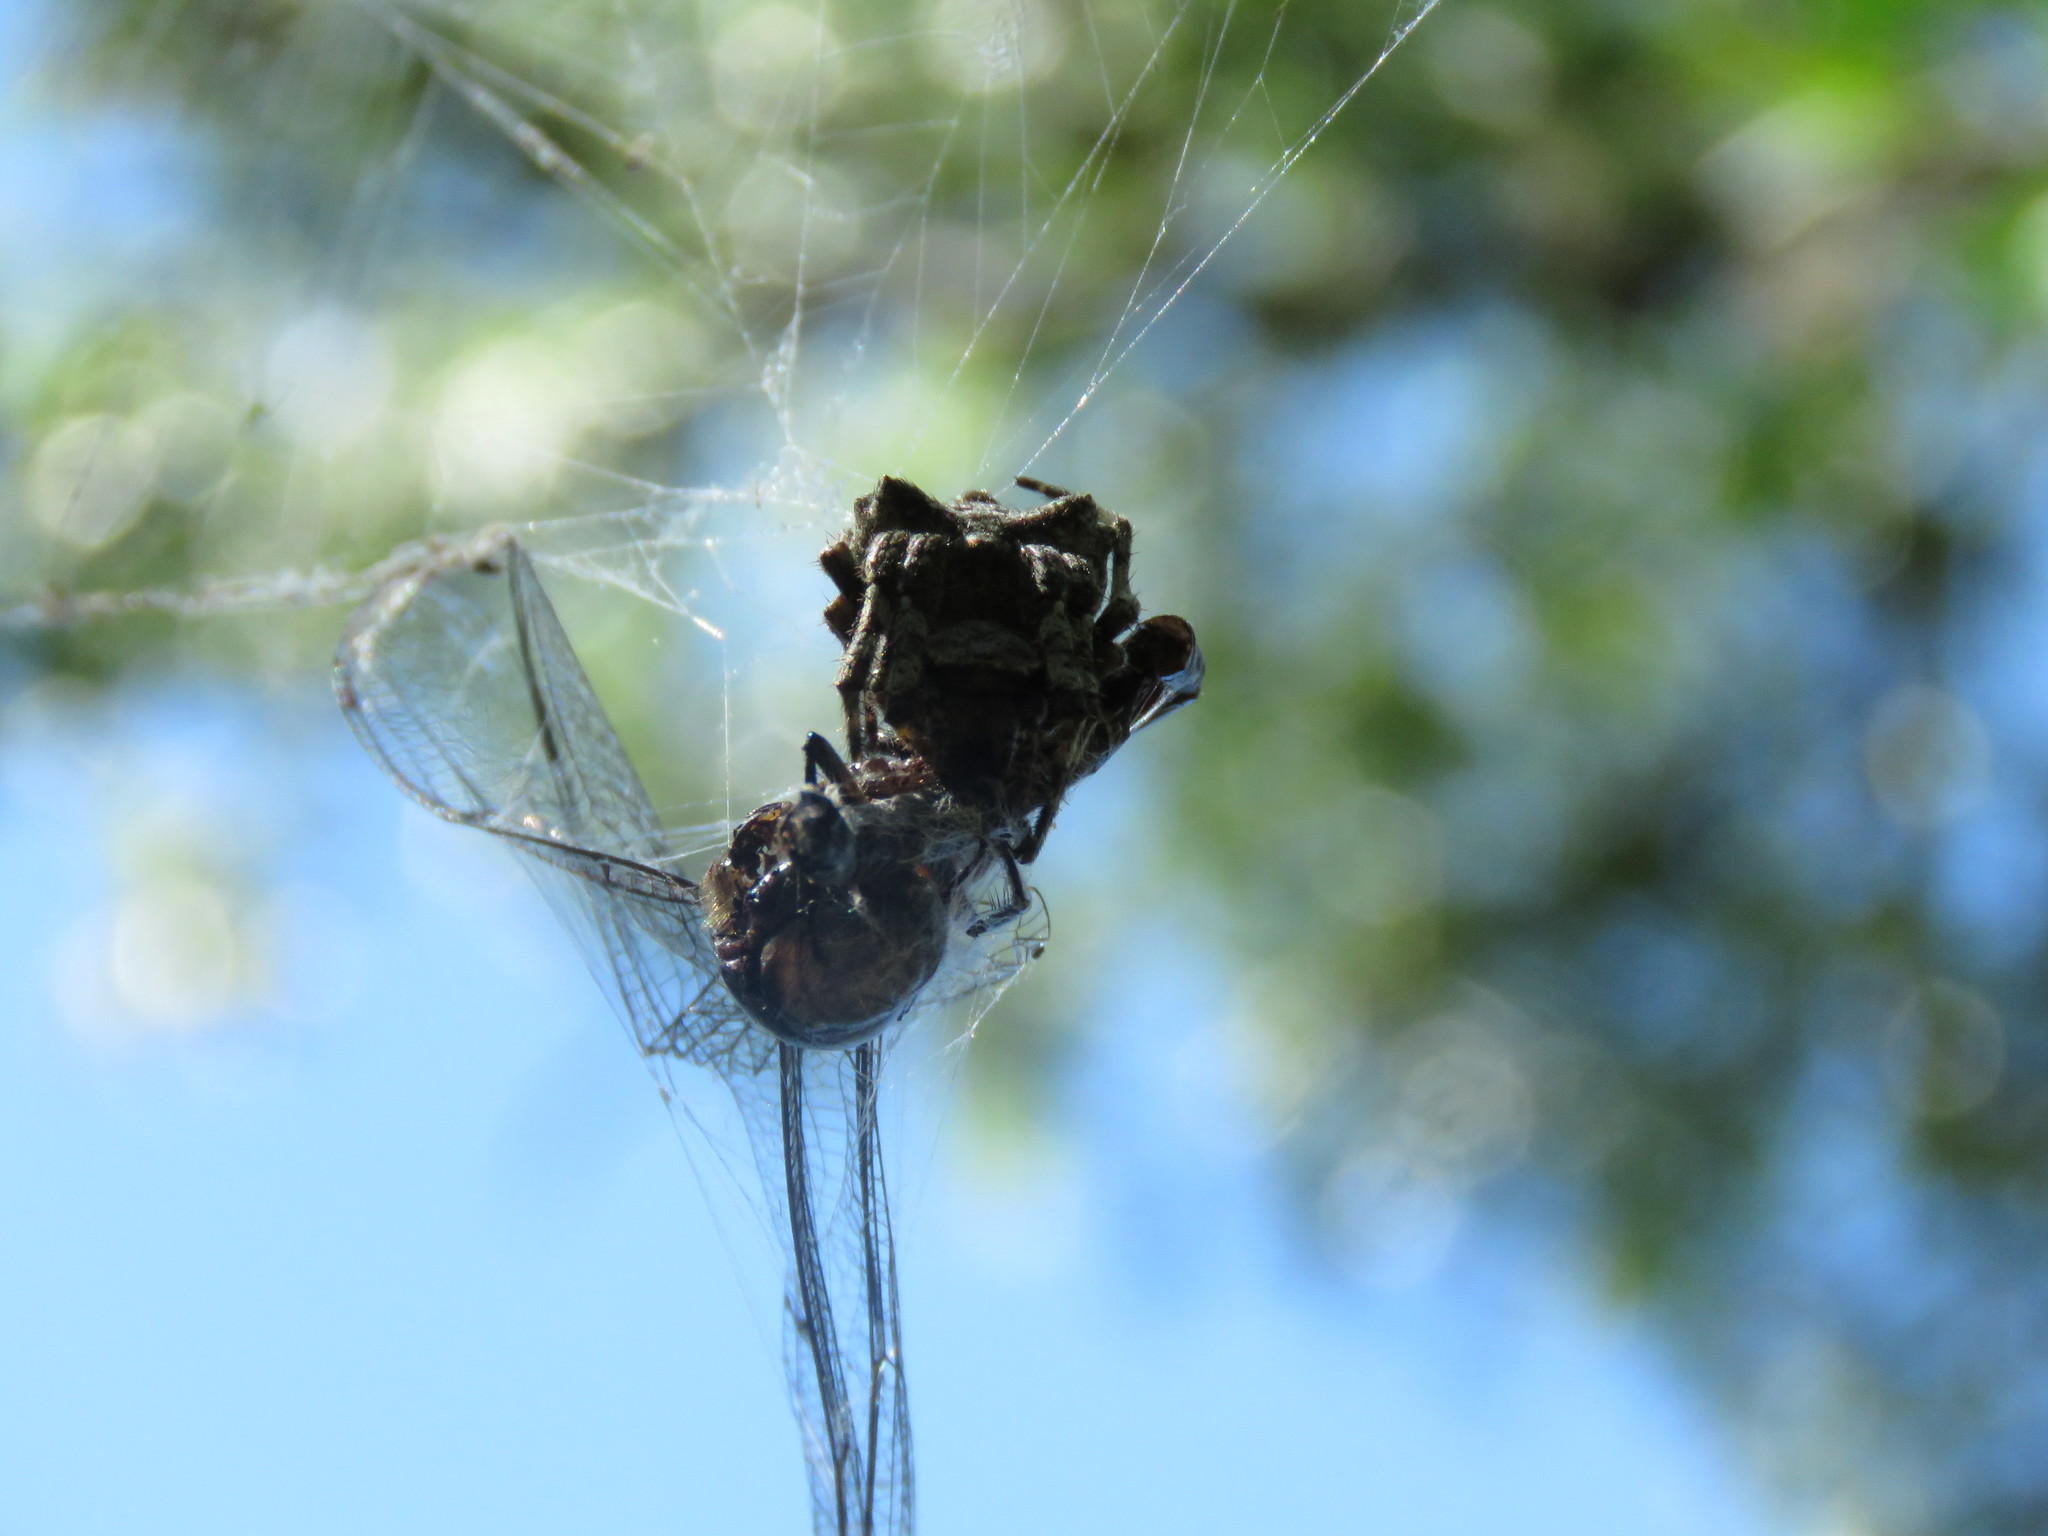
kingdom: Animalia
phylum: Arthropoda
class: Arachnida
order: Araneae
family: Araneidae
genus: Parawixia
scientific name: Parawixia audax
